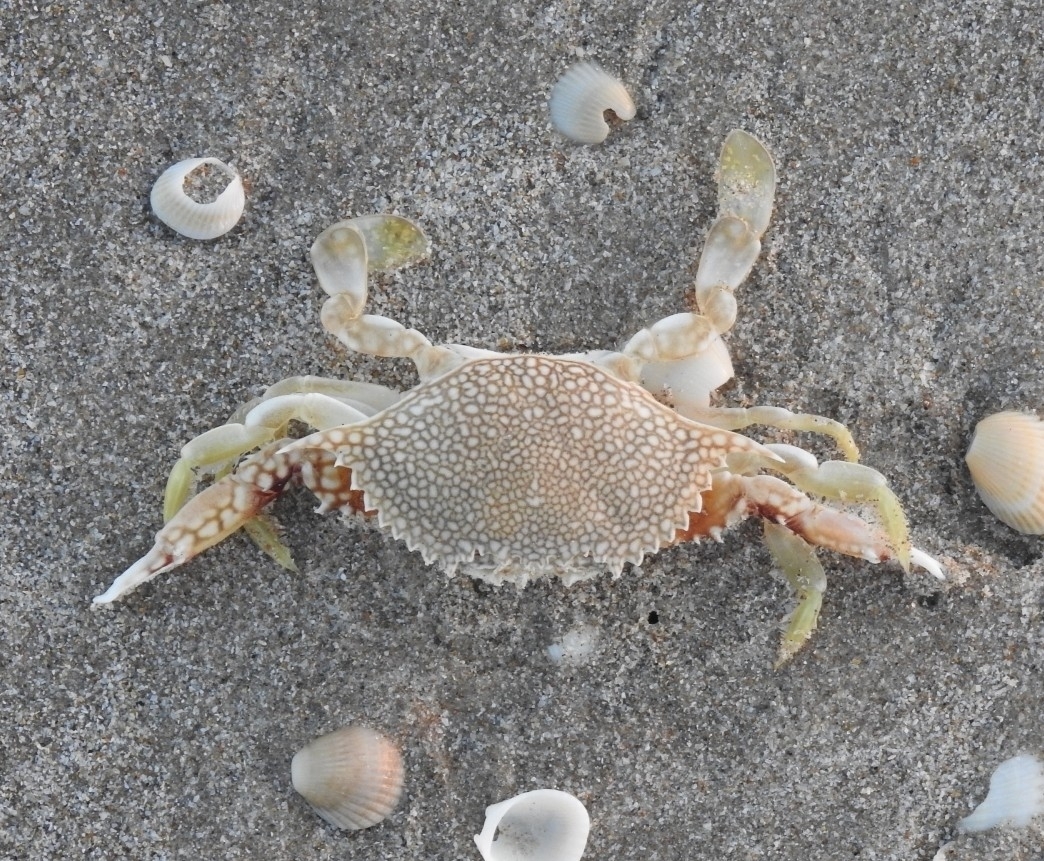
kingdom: Animalia
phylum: Arthropoda
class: Malacostraca
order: Decapoda
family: Portunidae
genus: Arenaeus
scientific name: Arenaeus cribrarius
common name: Speckled crab
